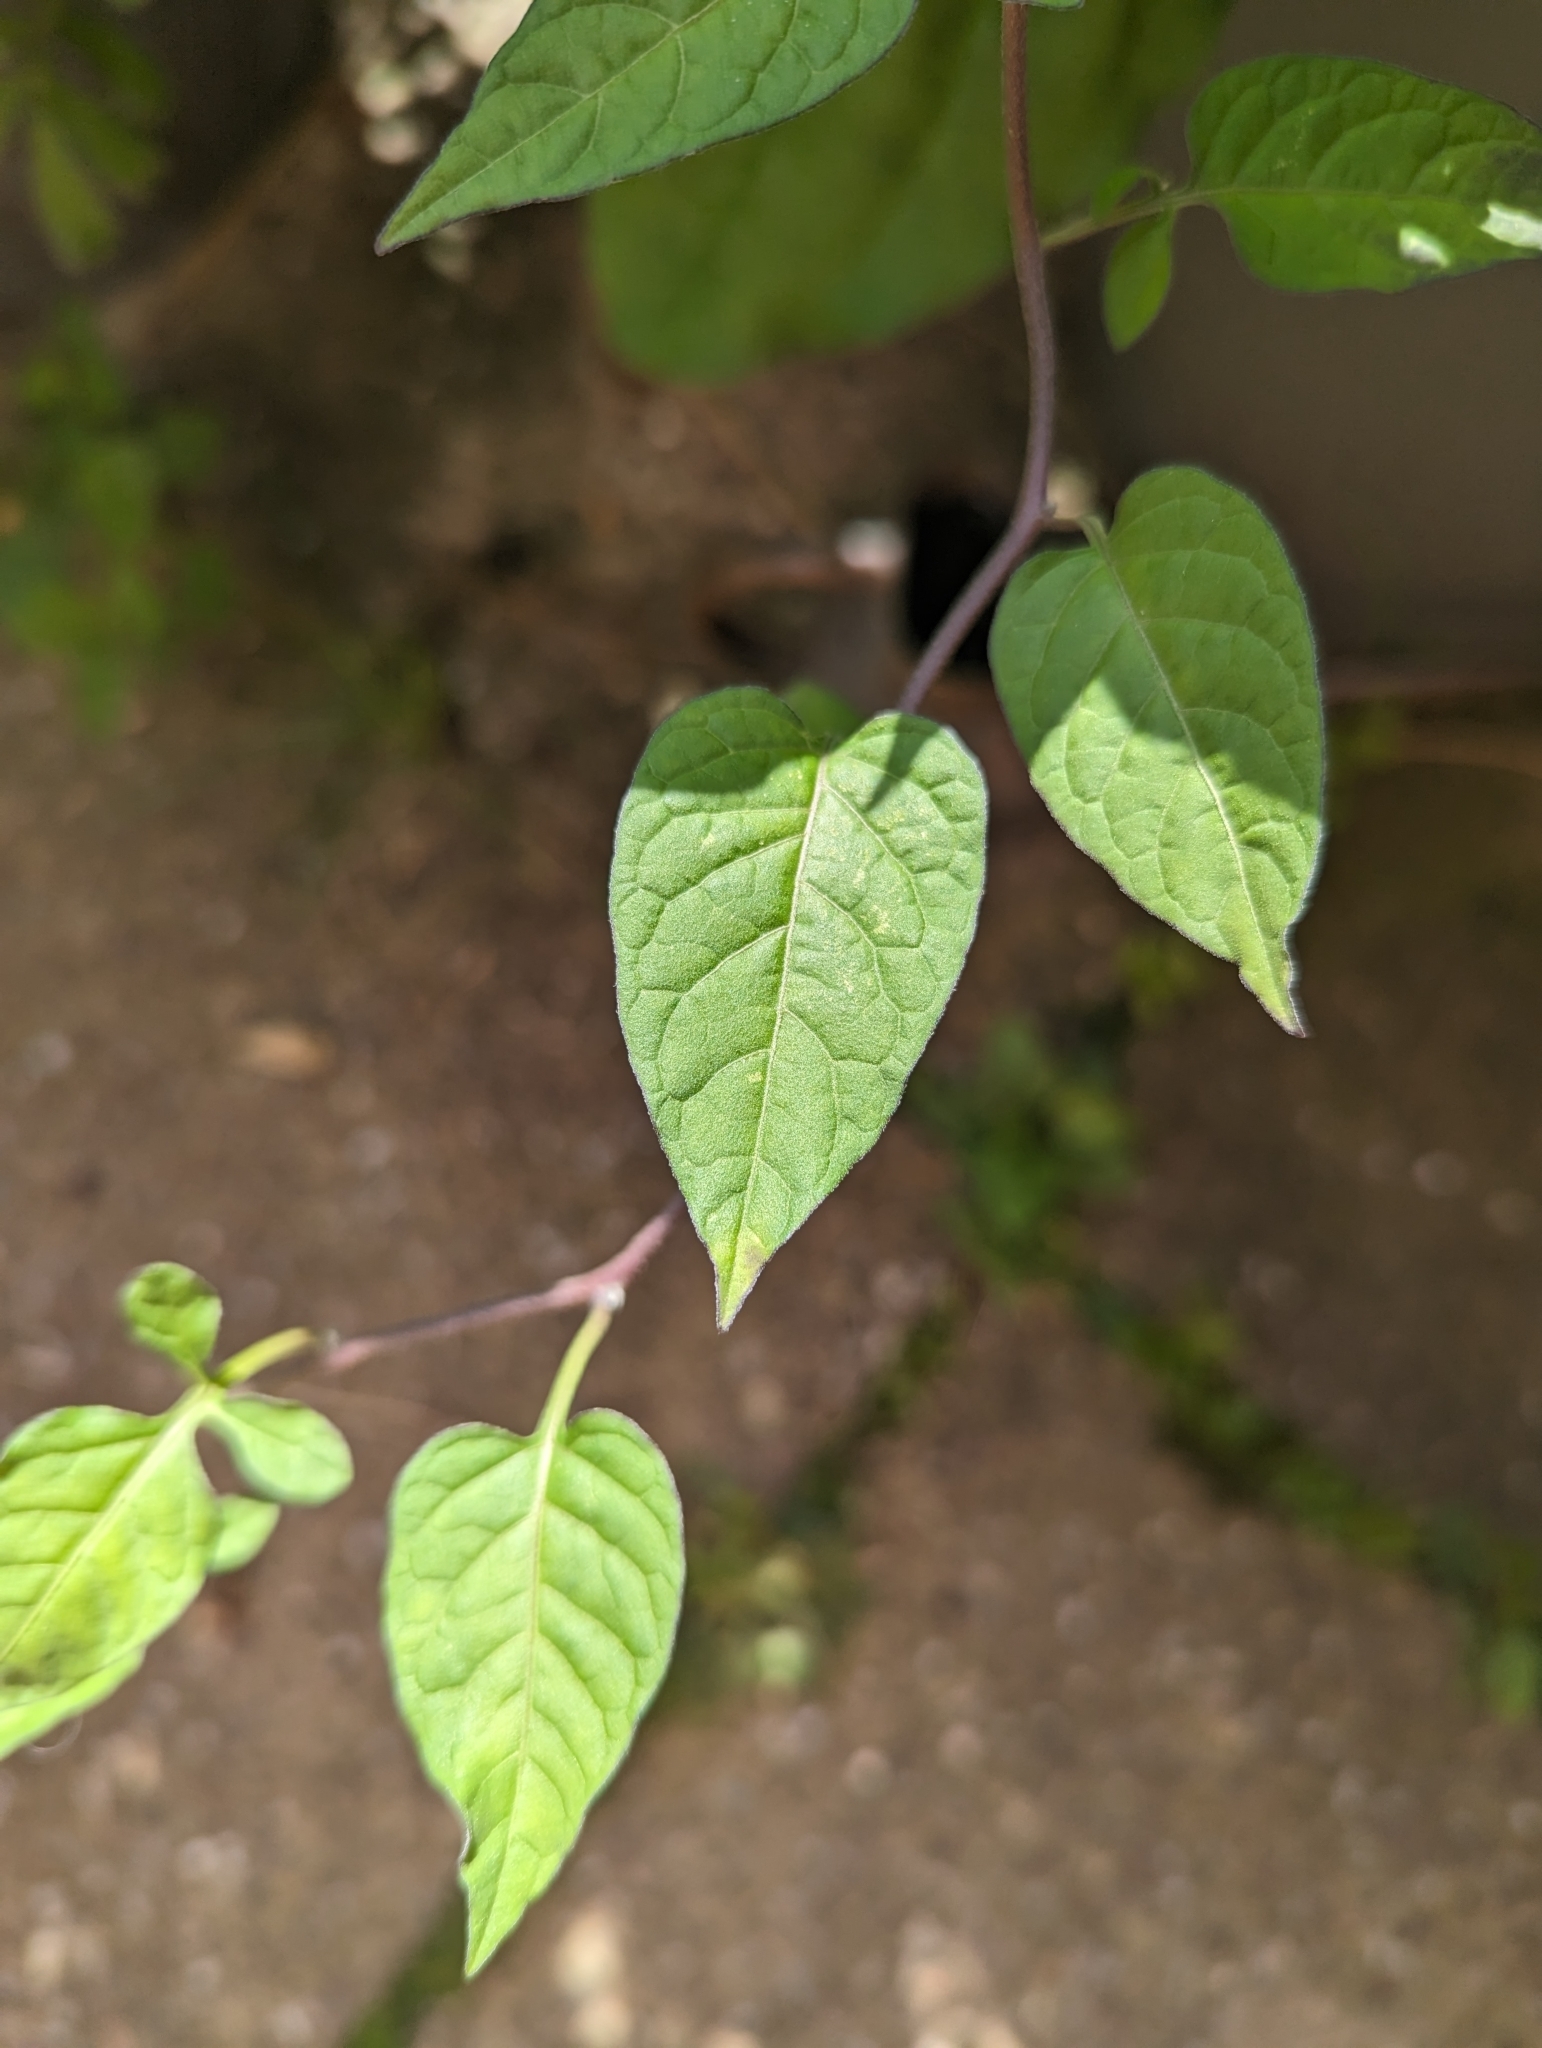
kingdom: Plantae
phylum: Tracheophyta
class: Magnoliopsida
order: Solanales
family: Solanaceae
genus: Solanum
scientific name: Solanum dulcamara
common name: Climbing nightshade
